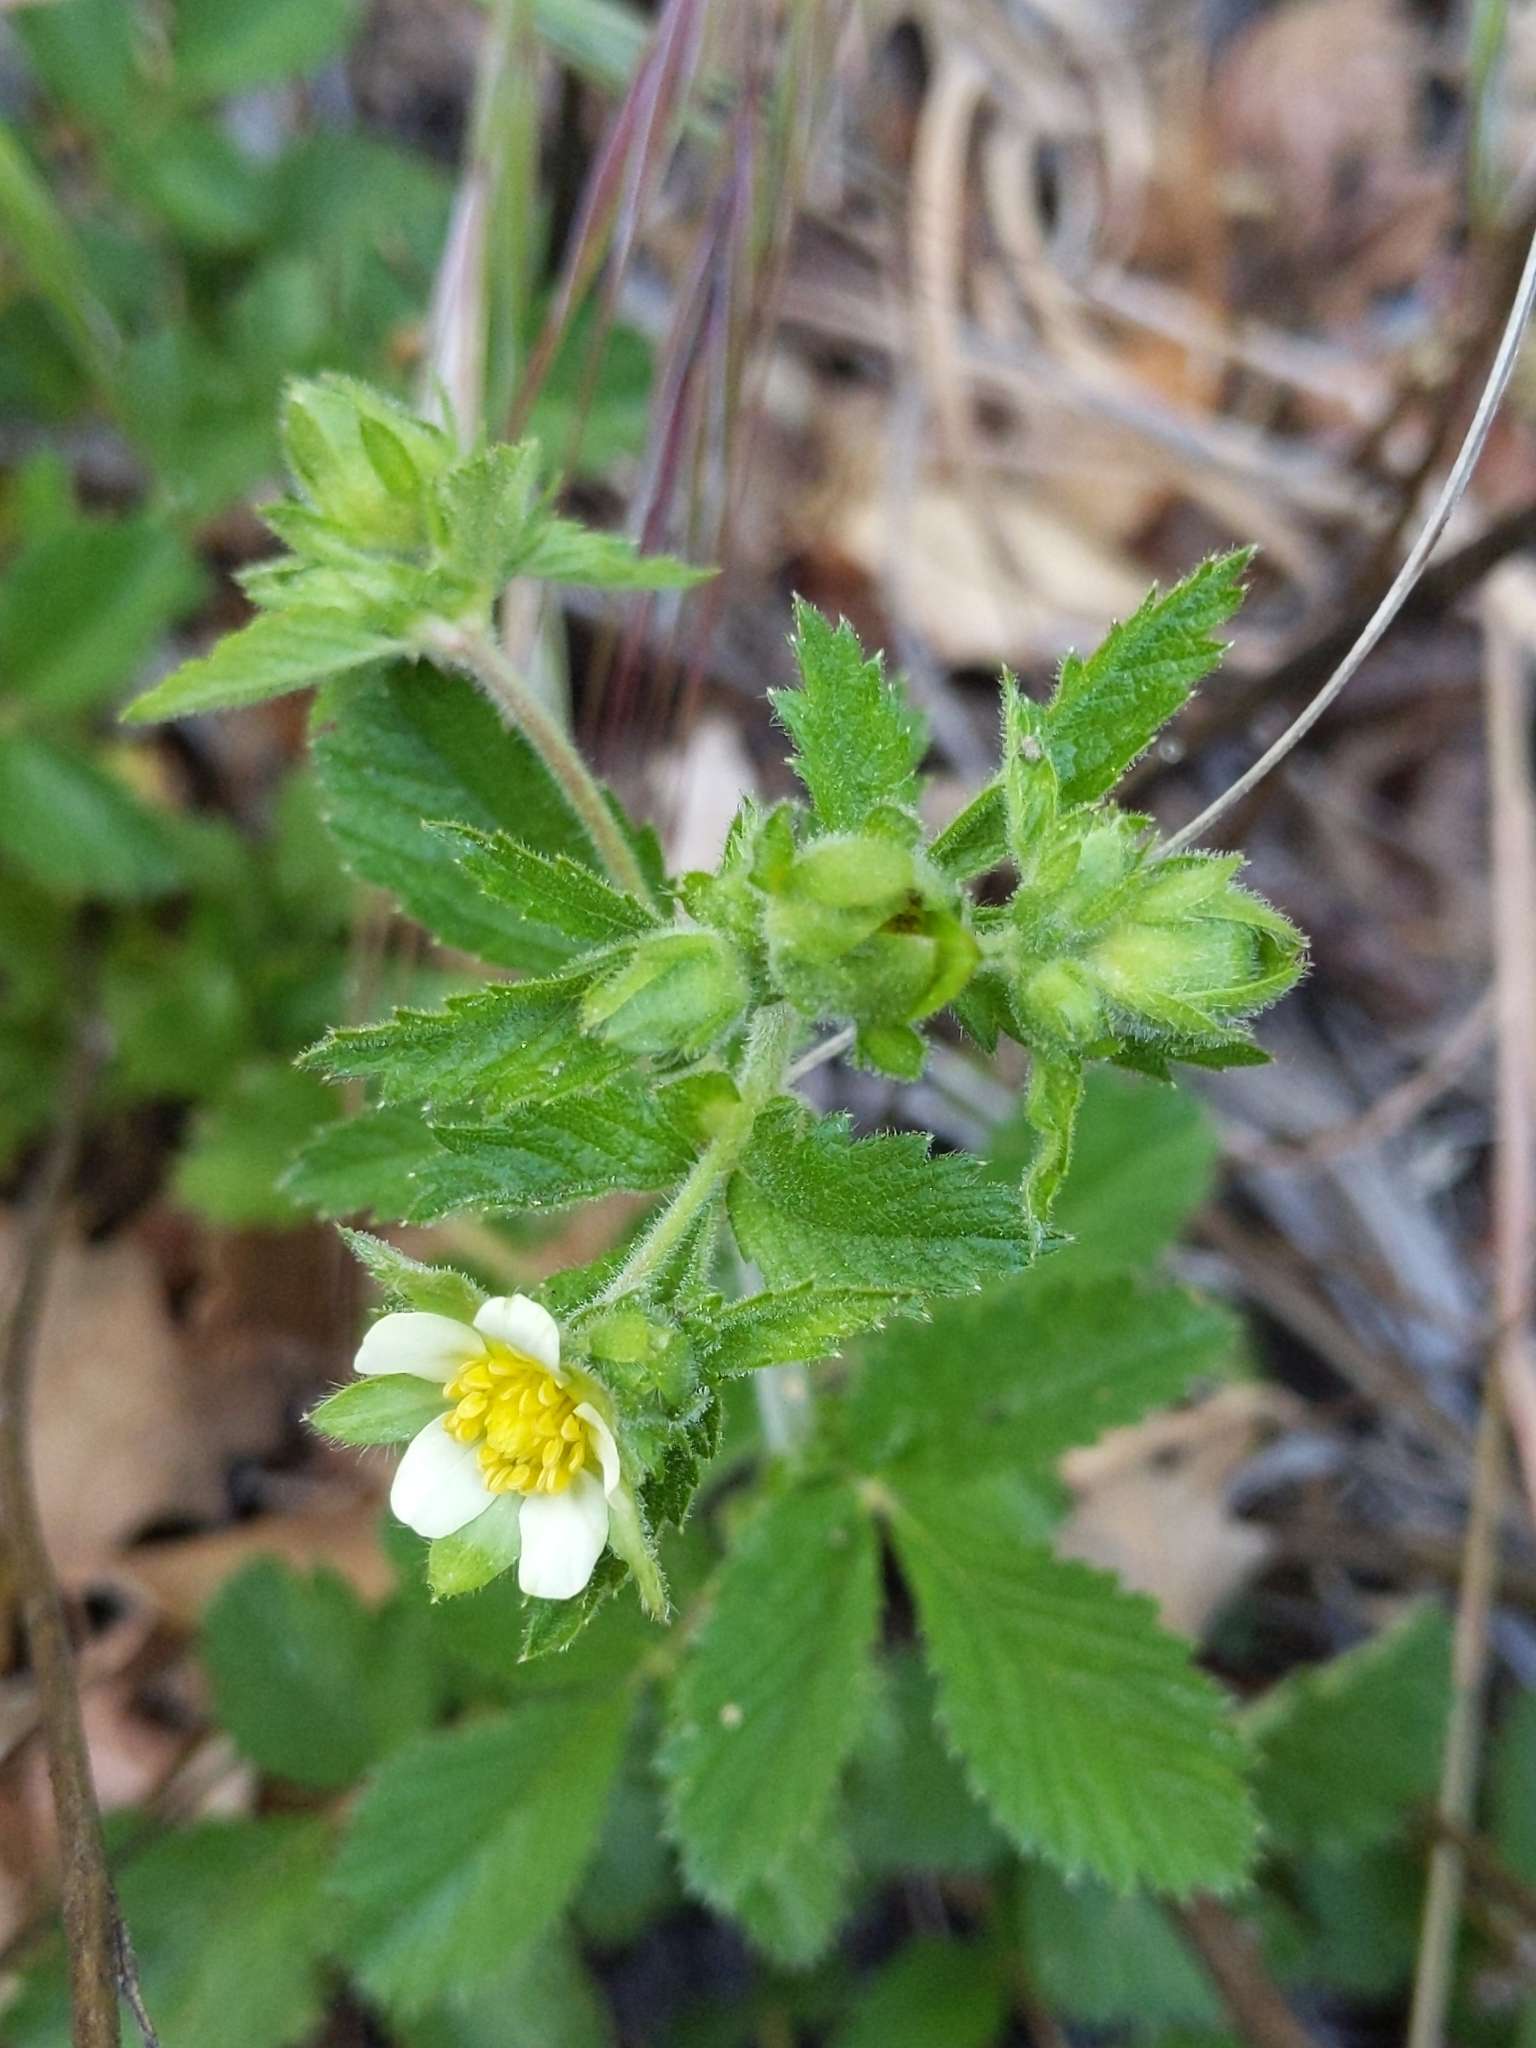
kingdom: Plantae
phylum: Tracheophyta
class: Magnoliopsida
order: Rosales
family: Rosaceae
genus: Drymocallis
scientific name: Drymocallis glandulosa
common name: Sticky cinquefoil
